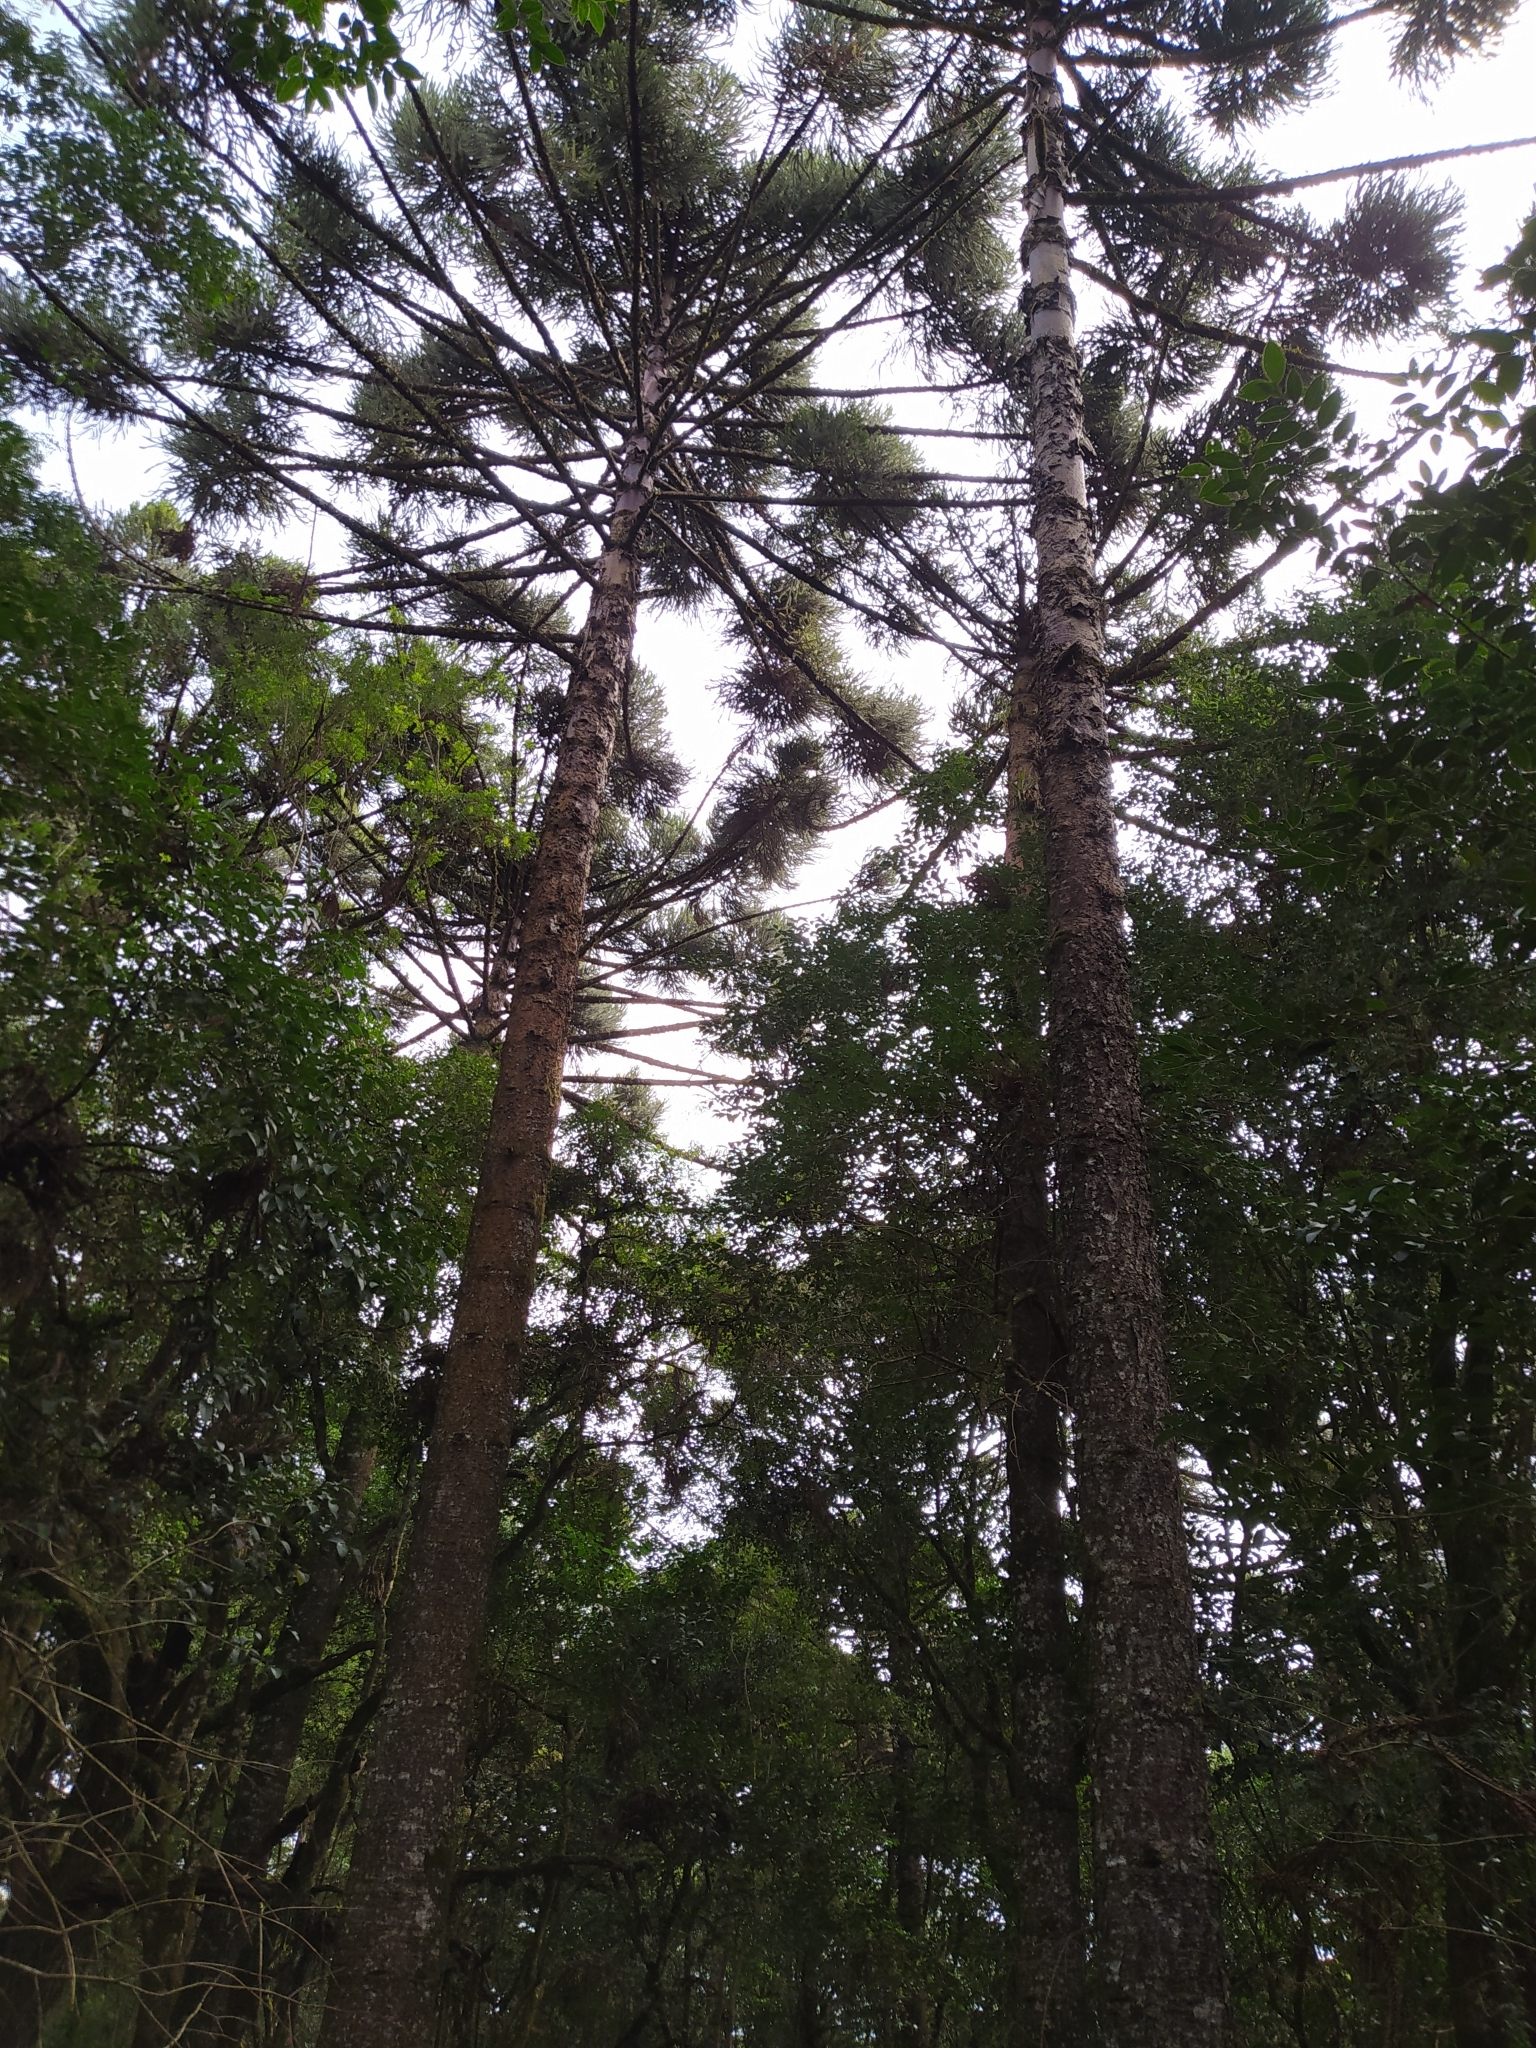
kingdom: Plantae
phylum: Tracheophyta
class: Pinopsida
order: Pinales
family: Araucariaceae
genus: Araucaria
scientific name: Araucaria angustifolia
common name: Candelabra tree
